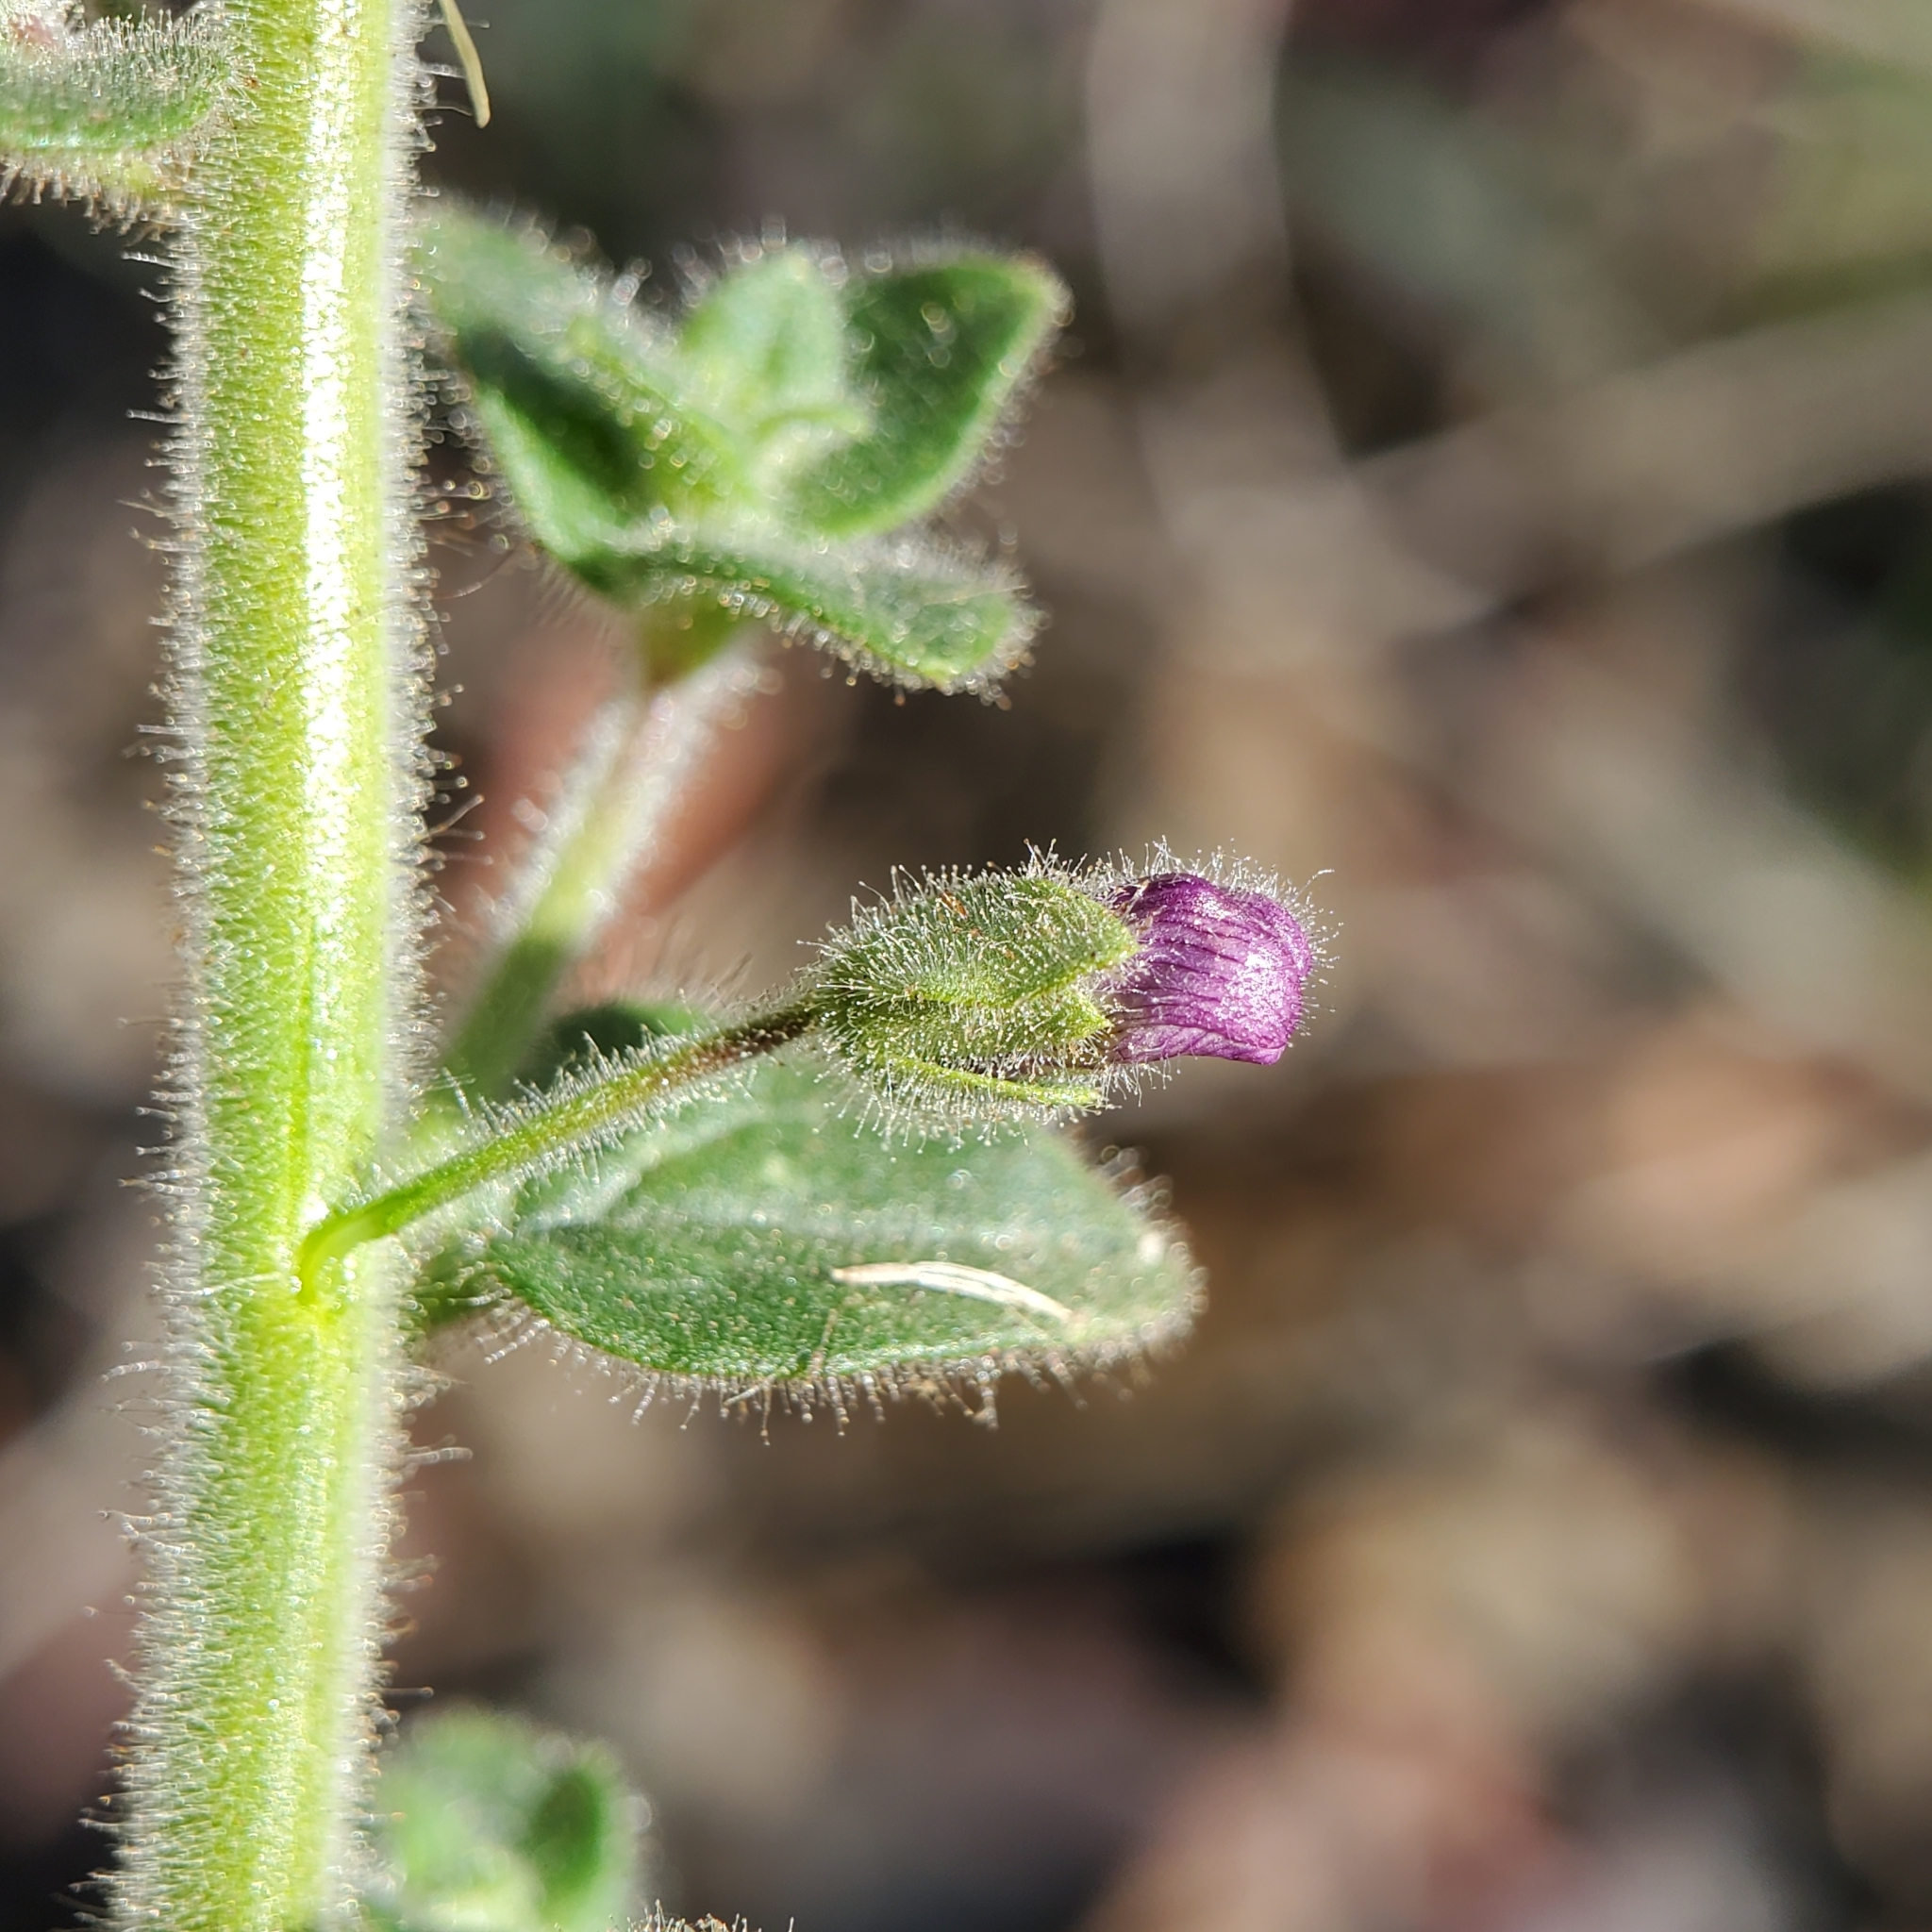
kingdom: Plantae
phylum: Tracheophyta
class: Magnoliopsida
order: Lamiales
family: Plantaginaceae
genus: Sairocarpus
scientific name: Sairocarpus nuttallianus
